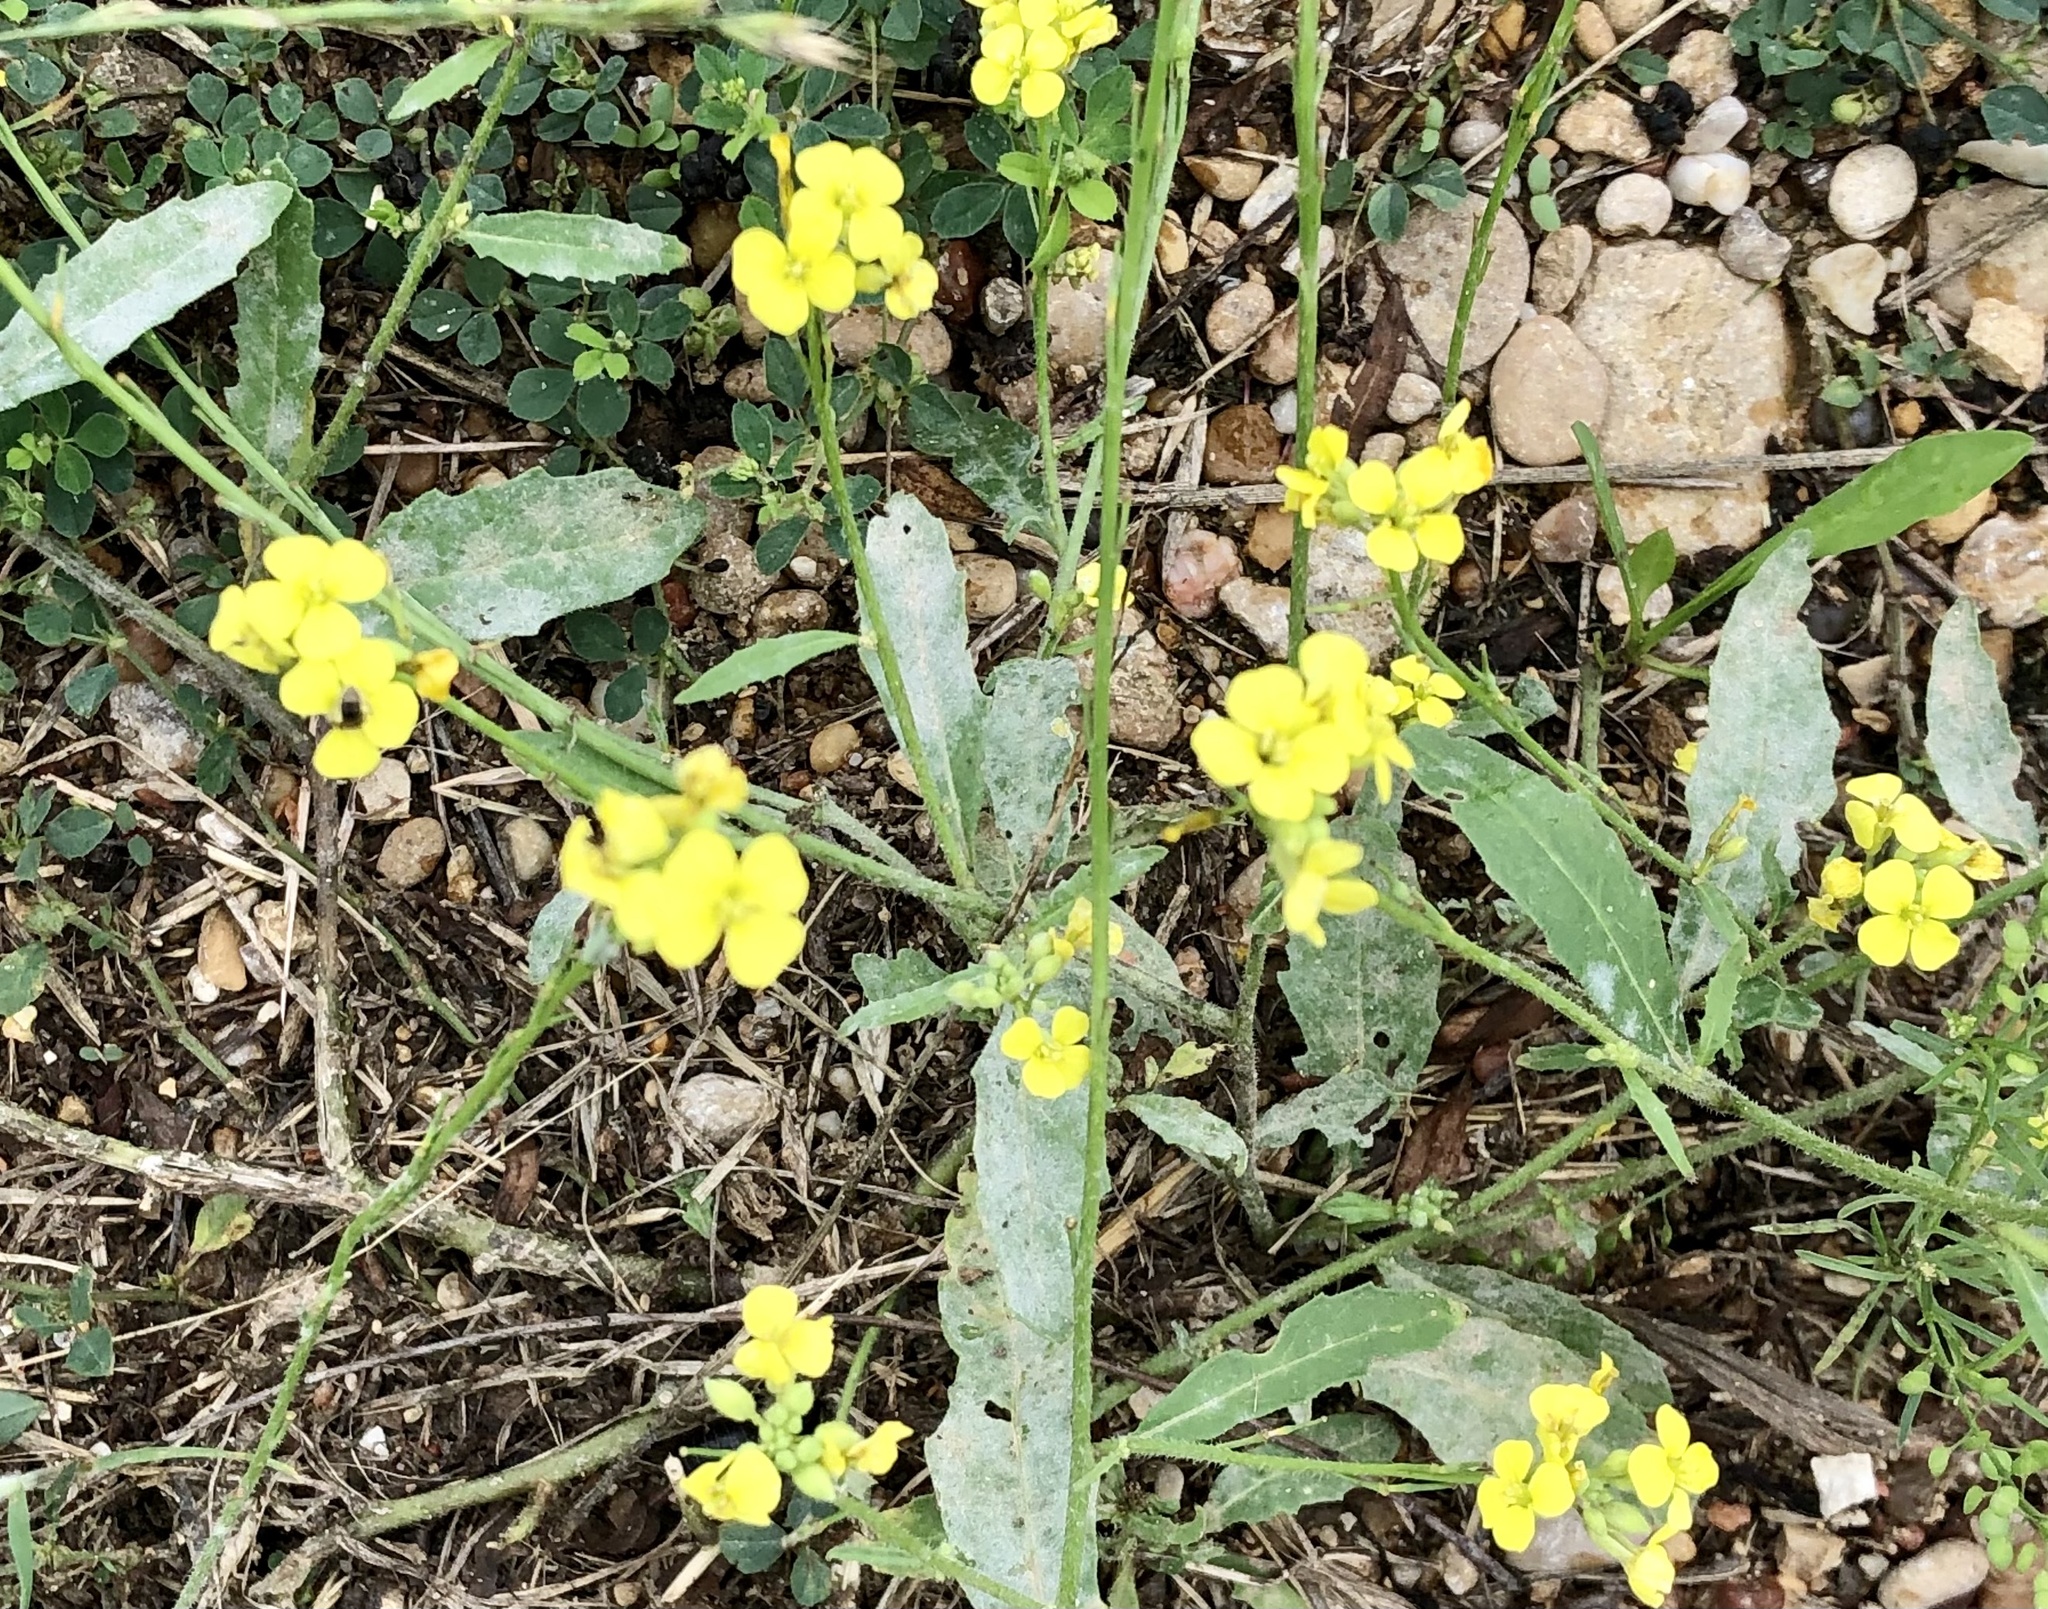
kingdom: Plantae
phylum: Tracheophyta
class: Magnoliopsida
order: Brassicales
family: Brassicaceae
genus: Rapistrum
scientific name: Rapistrum rugosum
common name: Annual bastardcabbage
